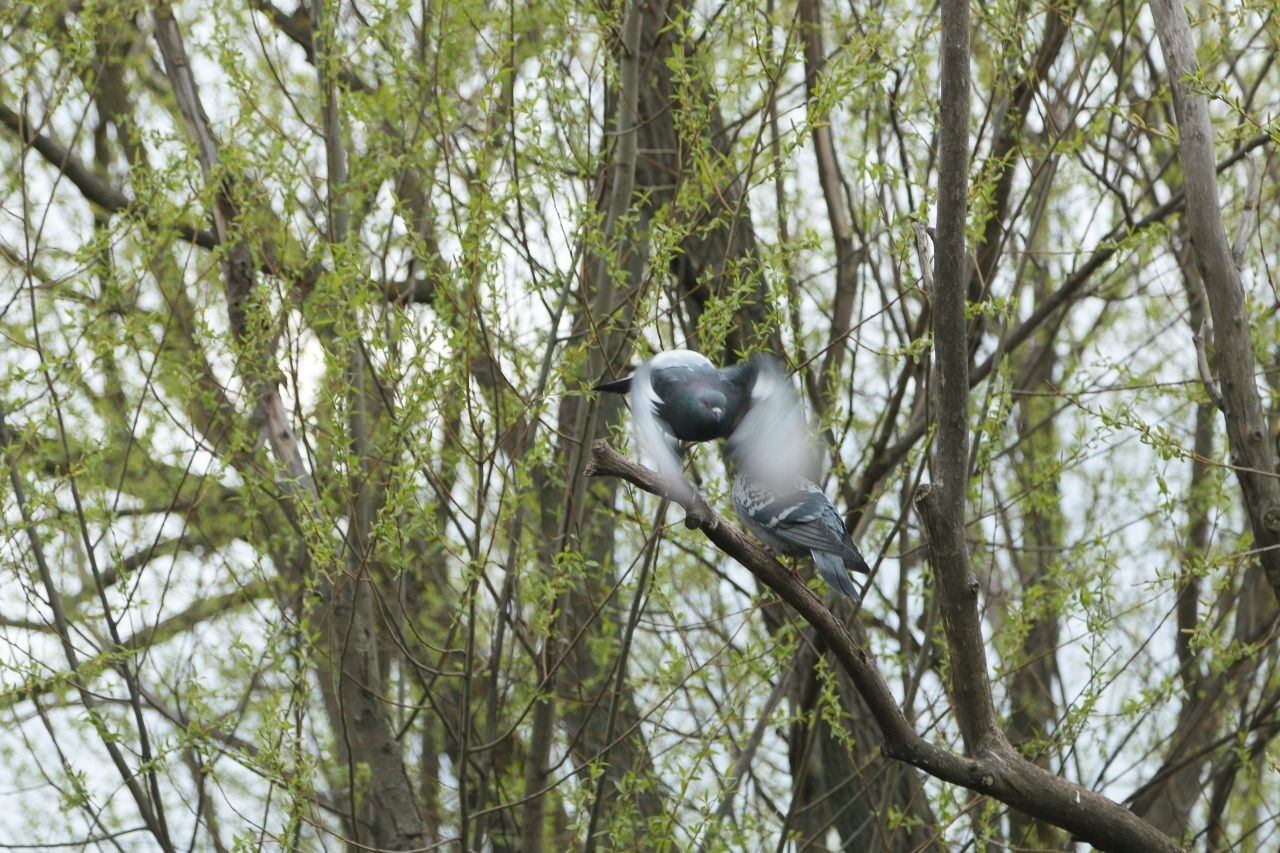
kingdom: Animalia
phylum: Chordata
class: Aves
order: Columbiformes
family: Columbidae
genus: Columba
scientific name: Columba livia
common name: Rock pigeon
